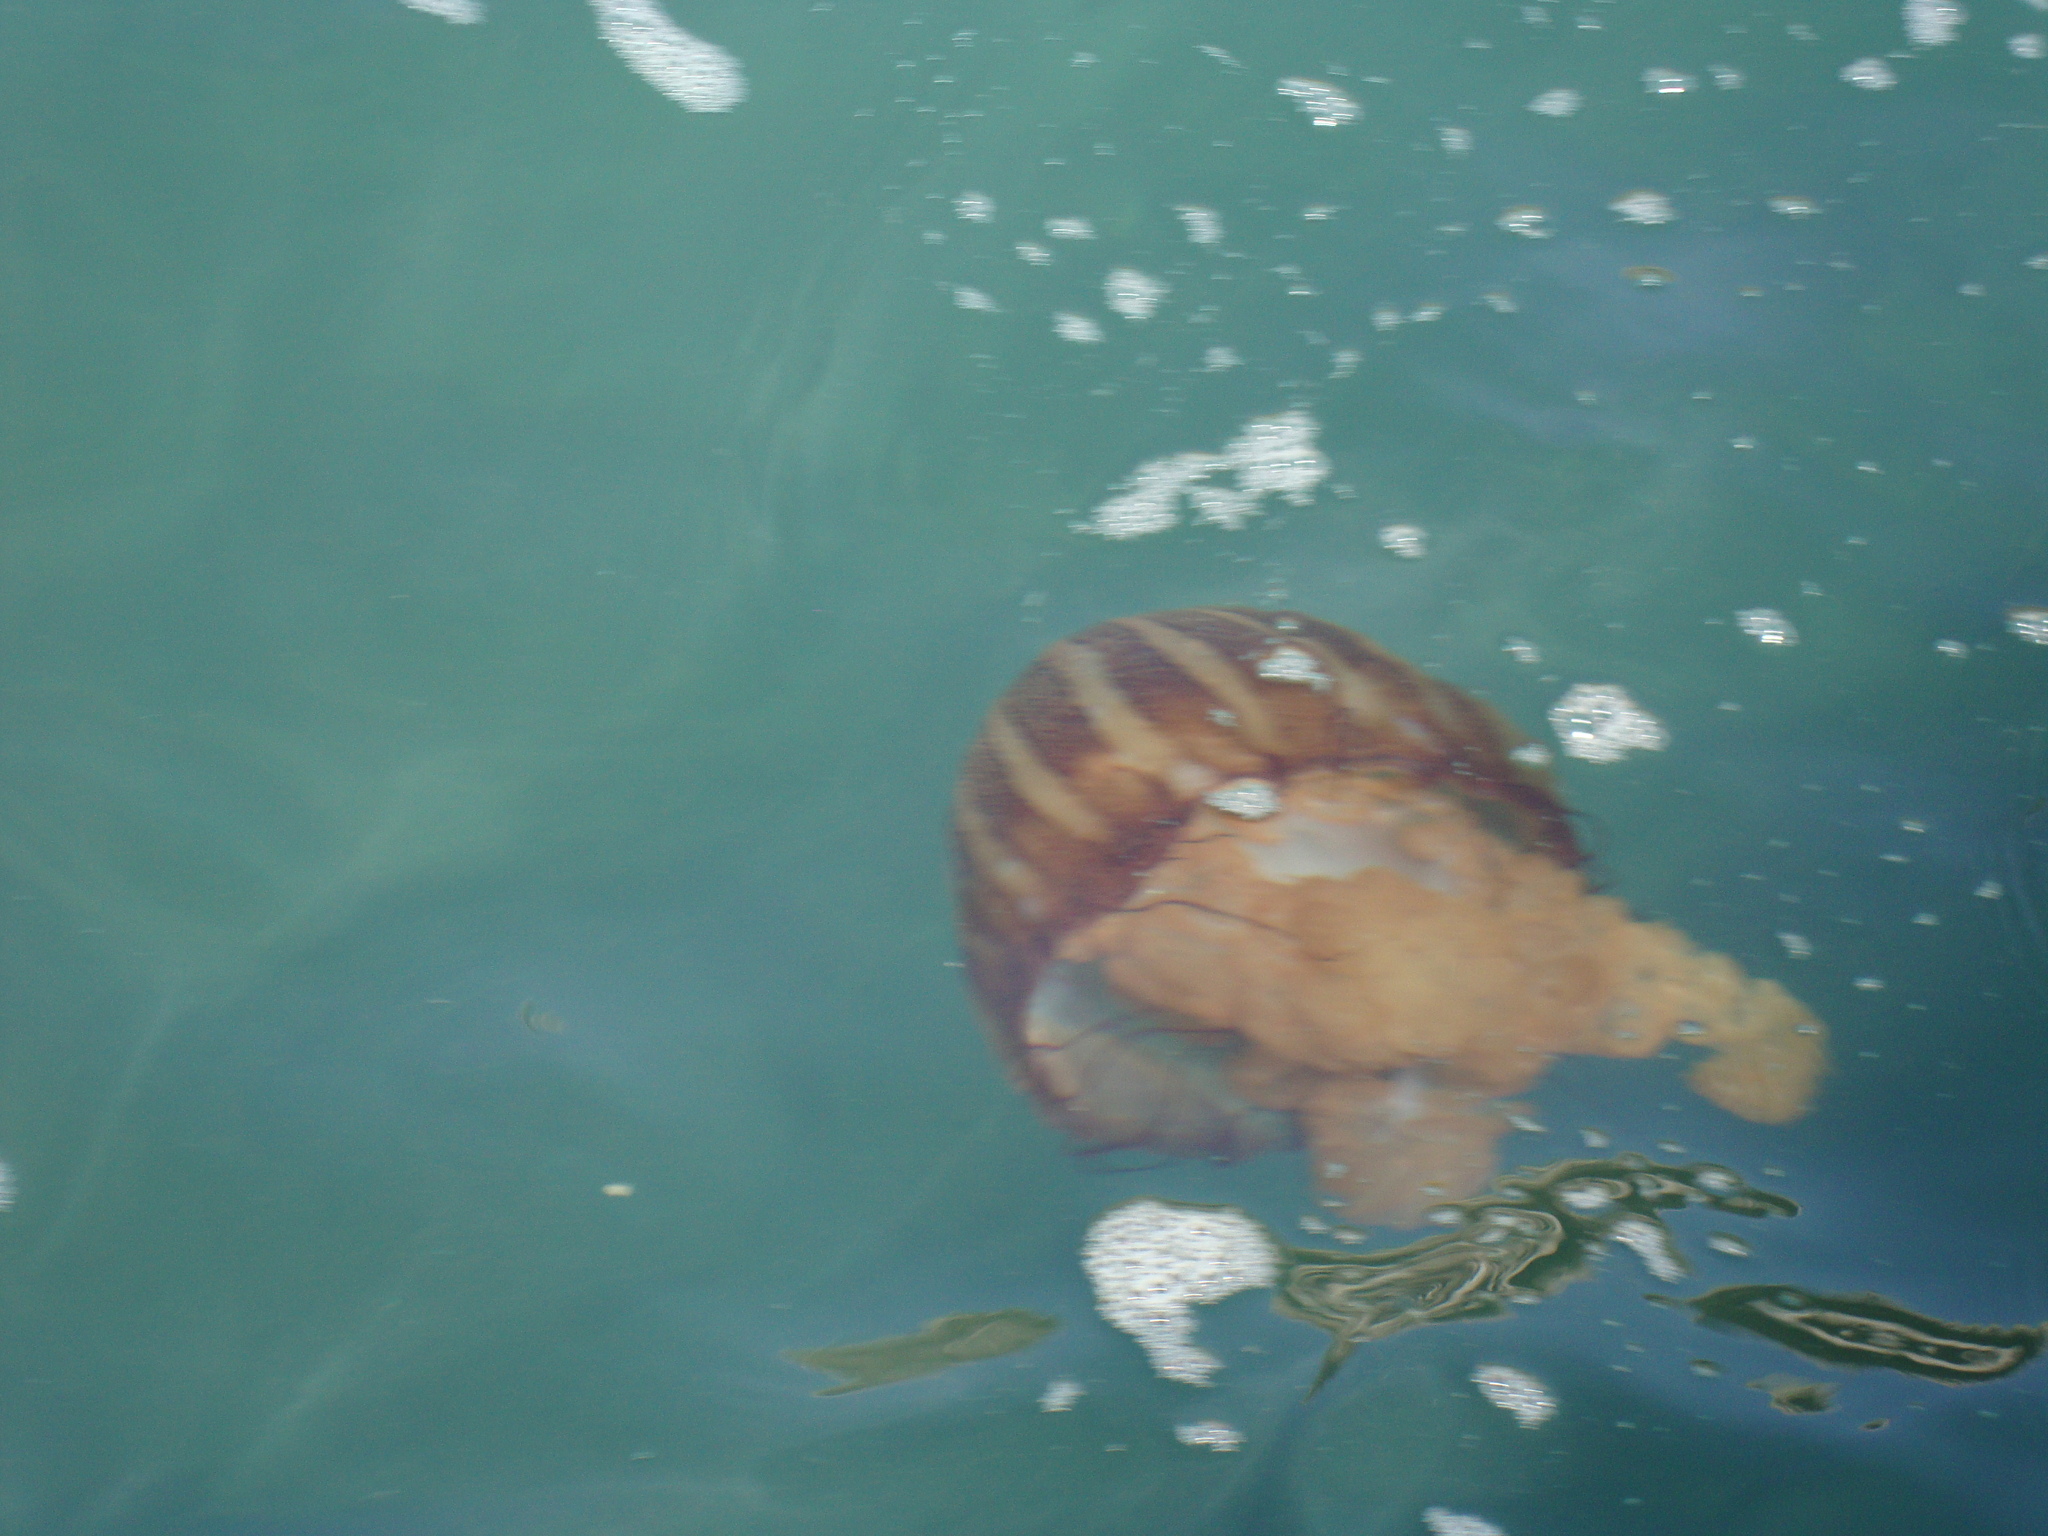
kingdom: Animalia
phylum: Cnidaria
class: Scyphozoa
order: Semaeostomeae
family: Pelagiidae
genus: Chrysaora
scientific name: Chrysaora plocamia
